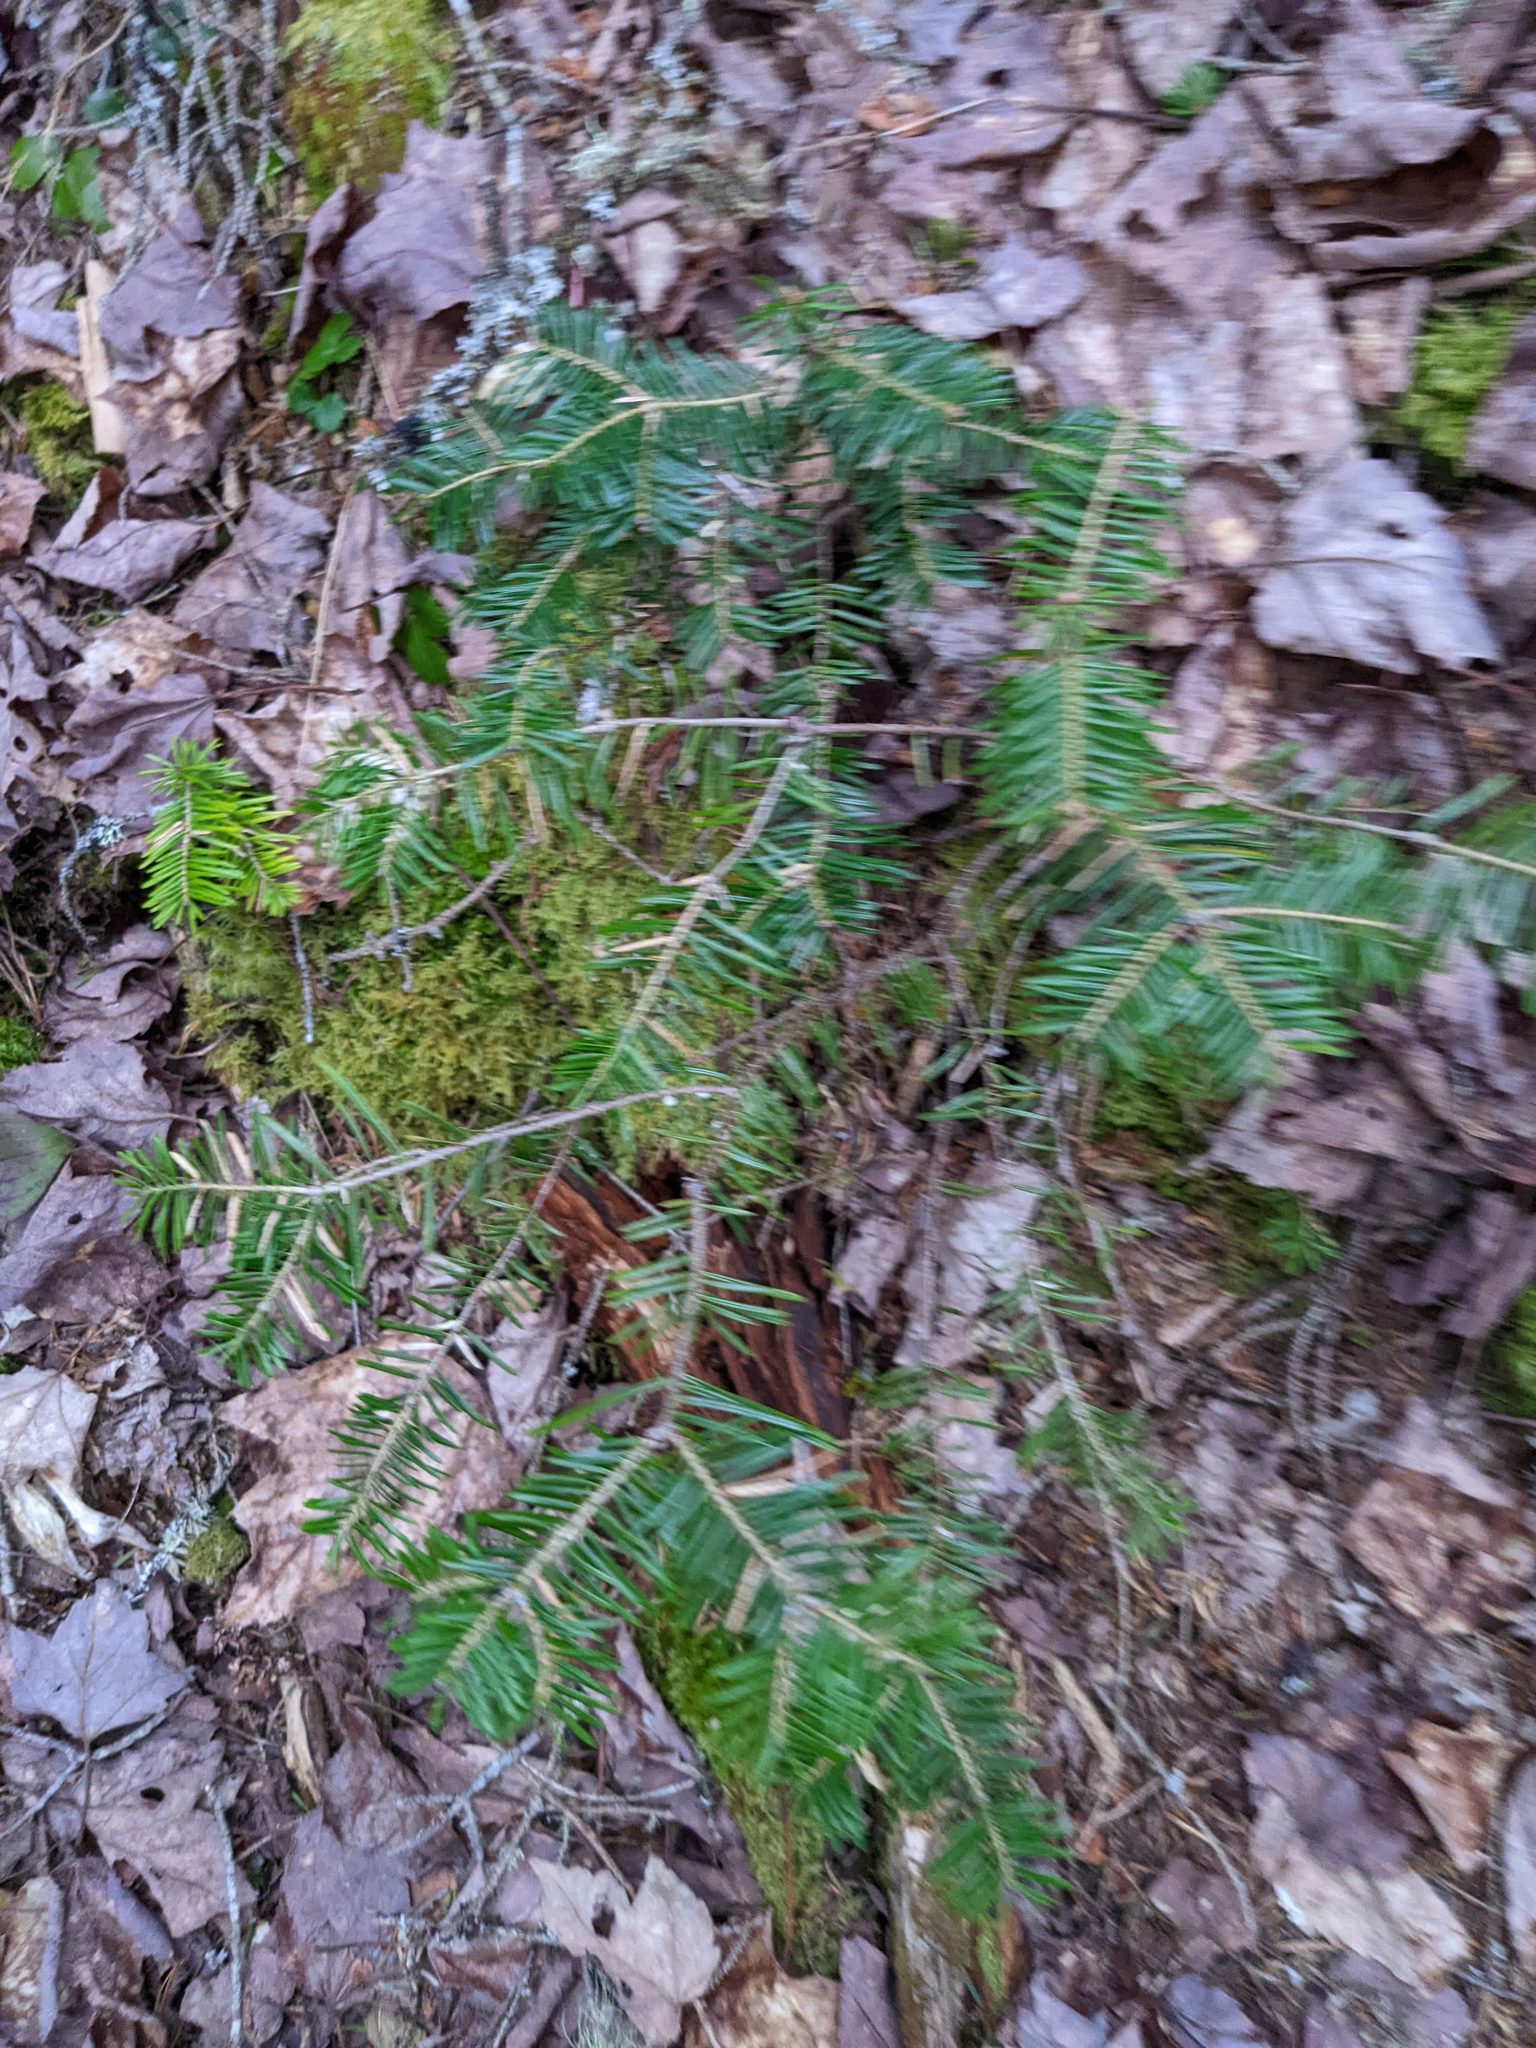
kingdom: Plantae
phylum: Tracheophyta
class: Pinopsida
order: Pinales
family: Pinaceae
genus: Abies
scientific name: Abies balsamea
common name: Balsam fir
